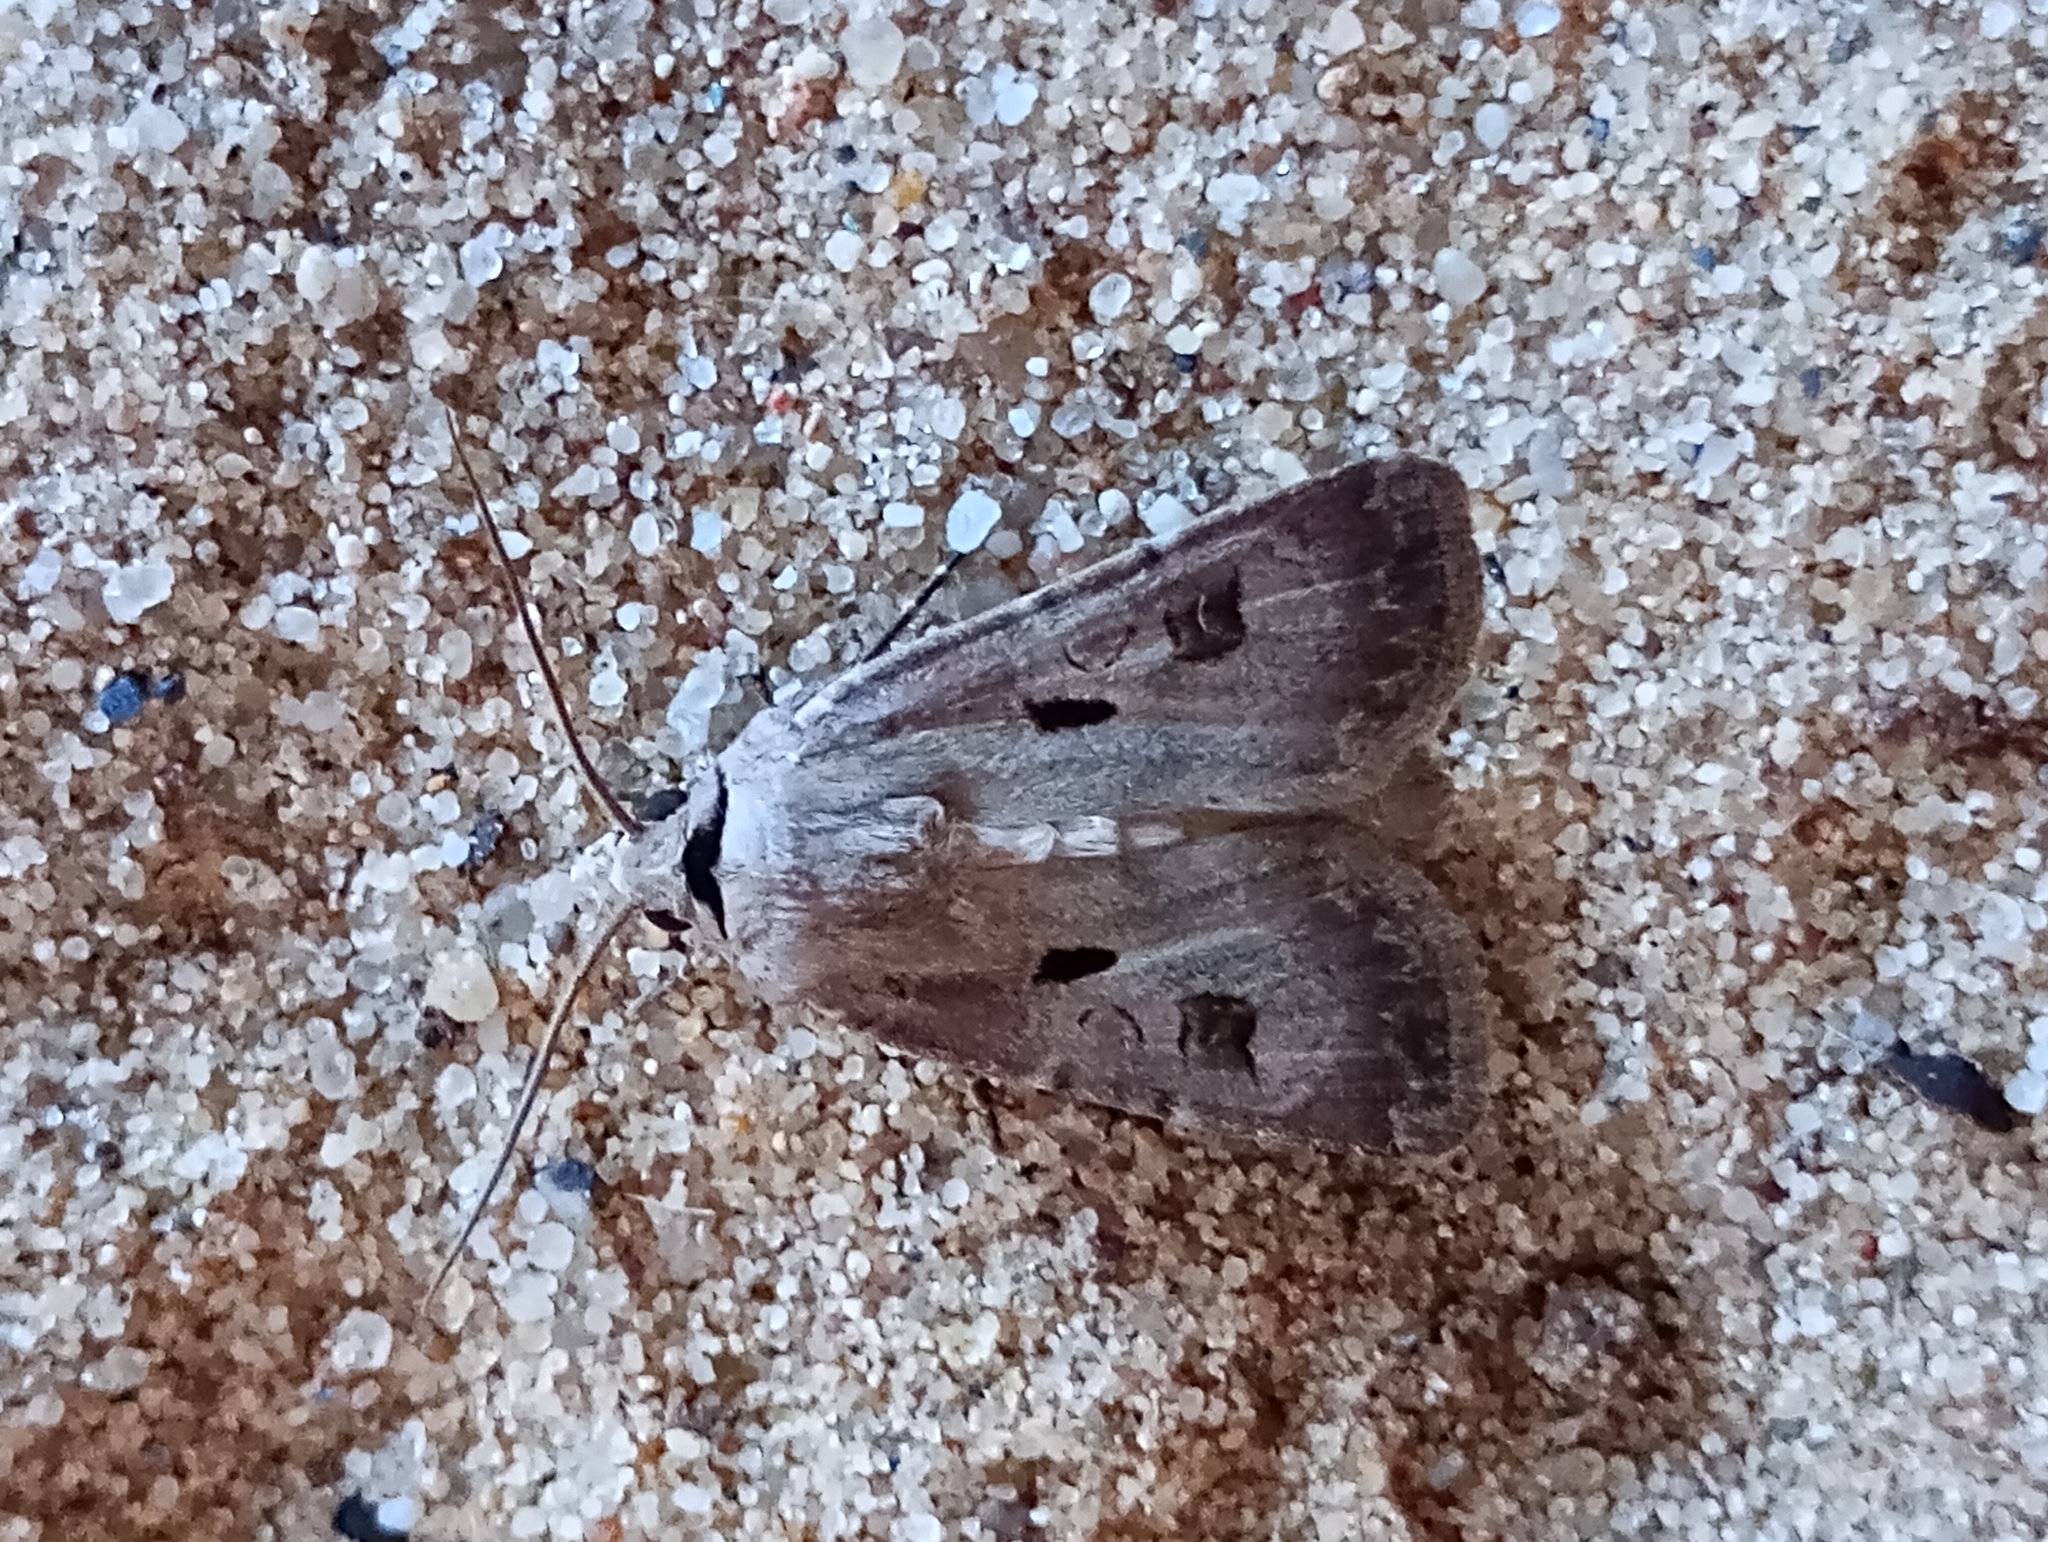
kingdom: Animalia
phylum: Arthropoda
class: Insecta
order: Lepidoptera
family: Noctuidae
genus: Agrotis
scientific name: Agrotis exclamationis
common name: Heart and dart
